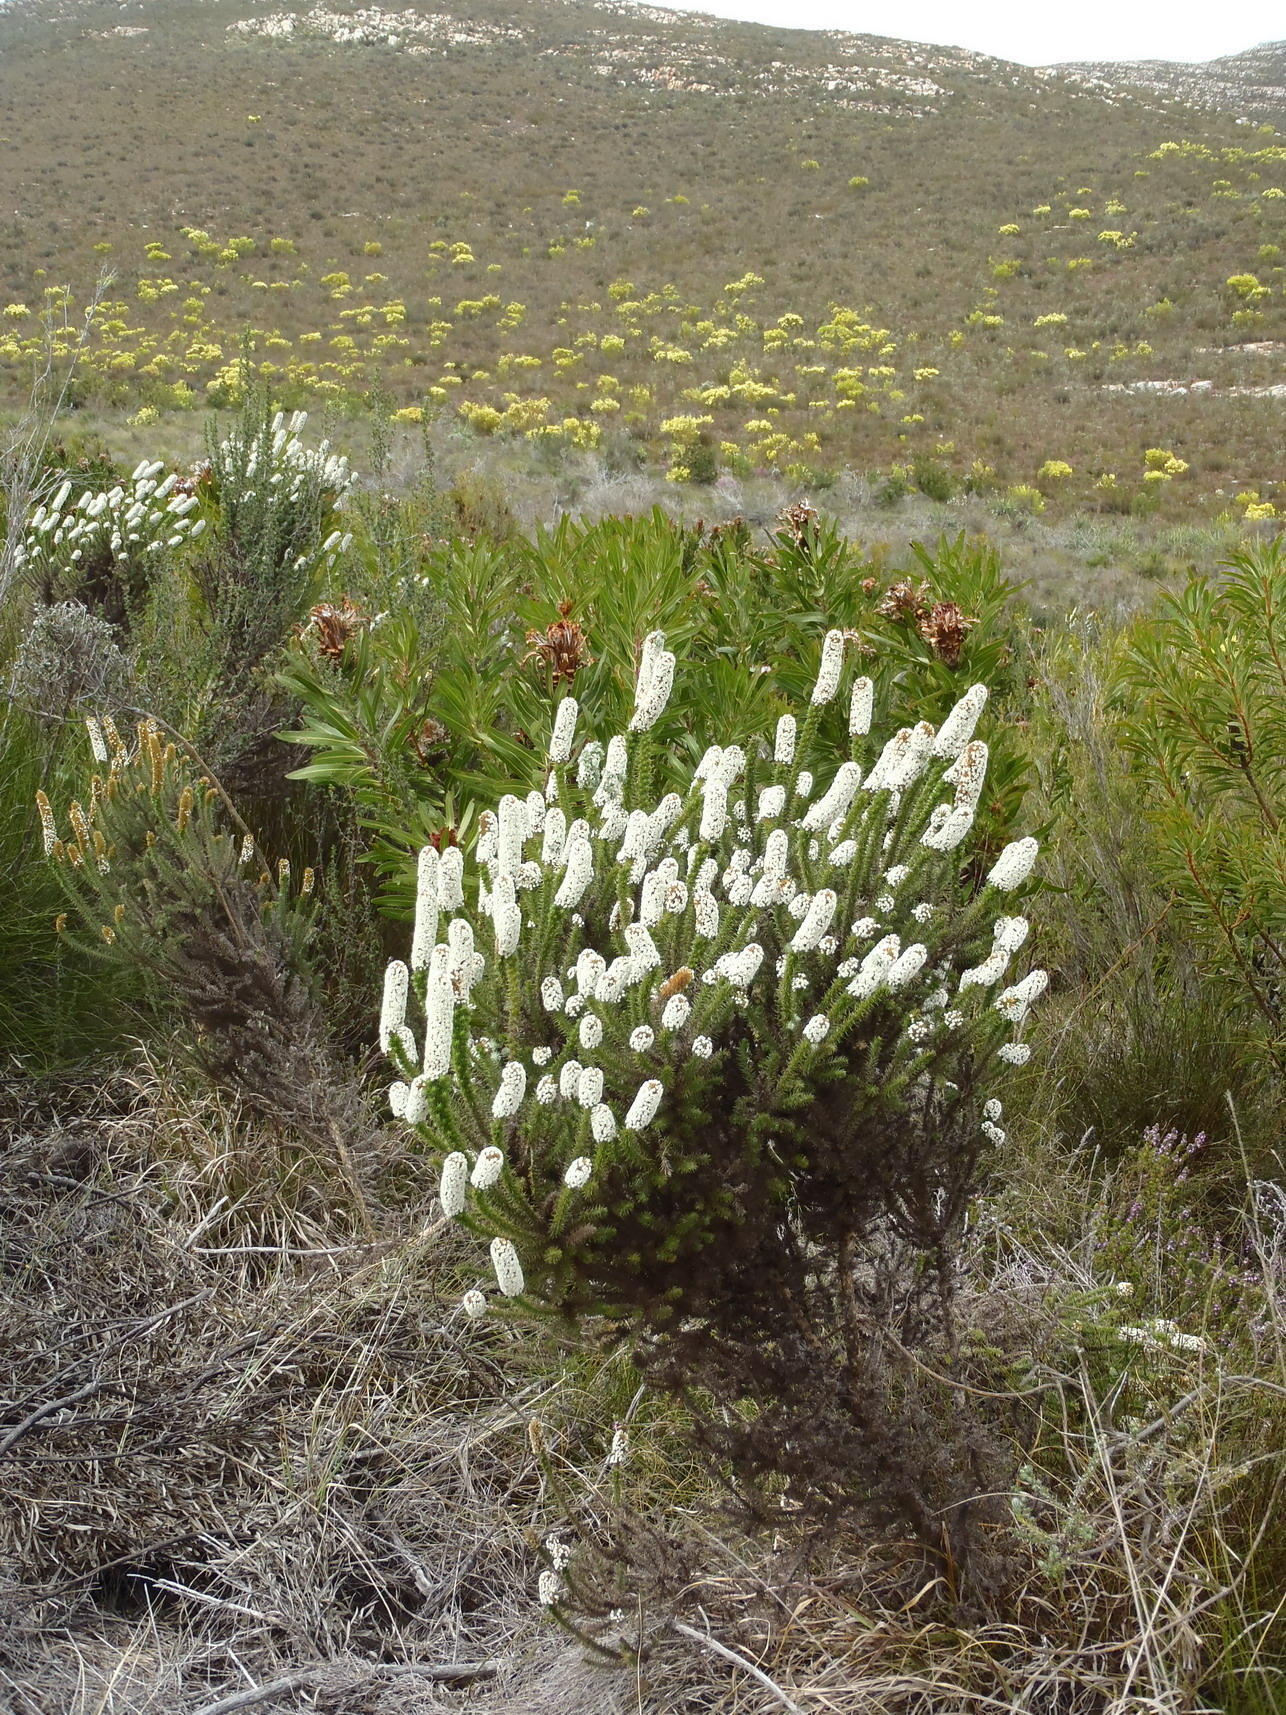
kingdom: Plantae
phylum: Tracheophyta
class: Magnoliopsida
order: Asterales
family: Asteraceae
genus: Stoebe
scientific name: Stoebe alopecuroides
